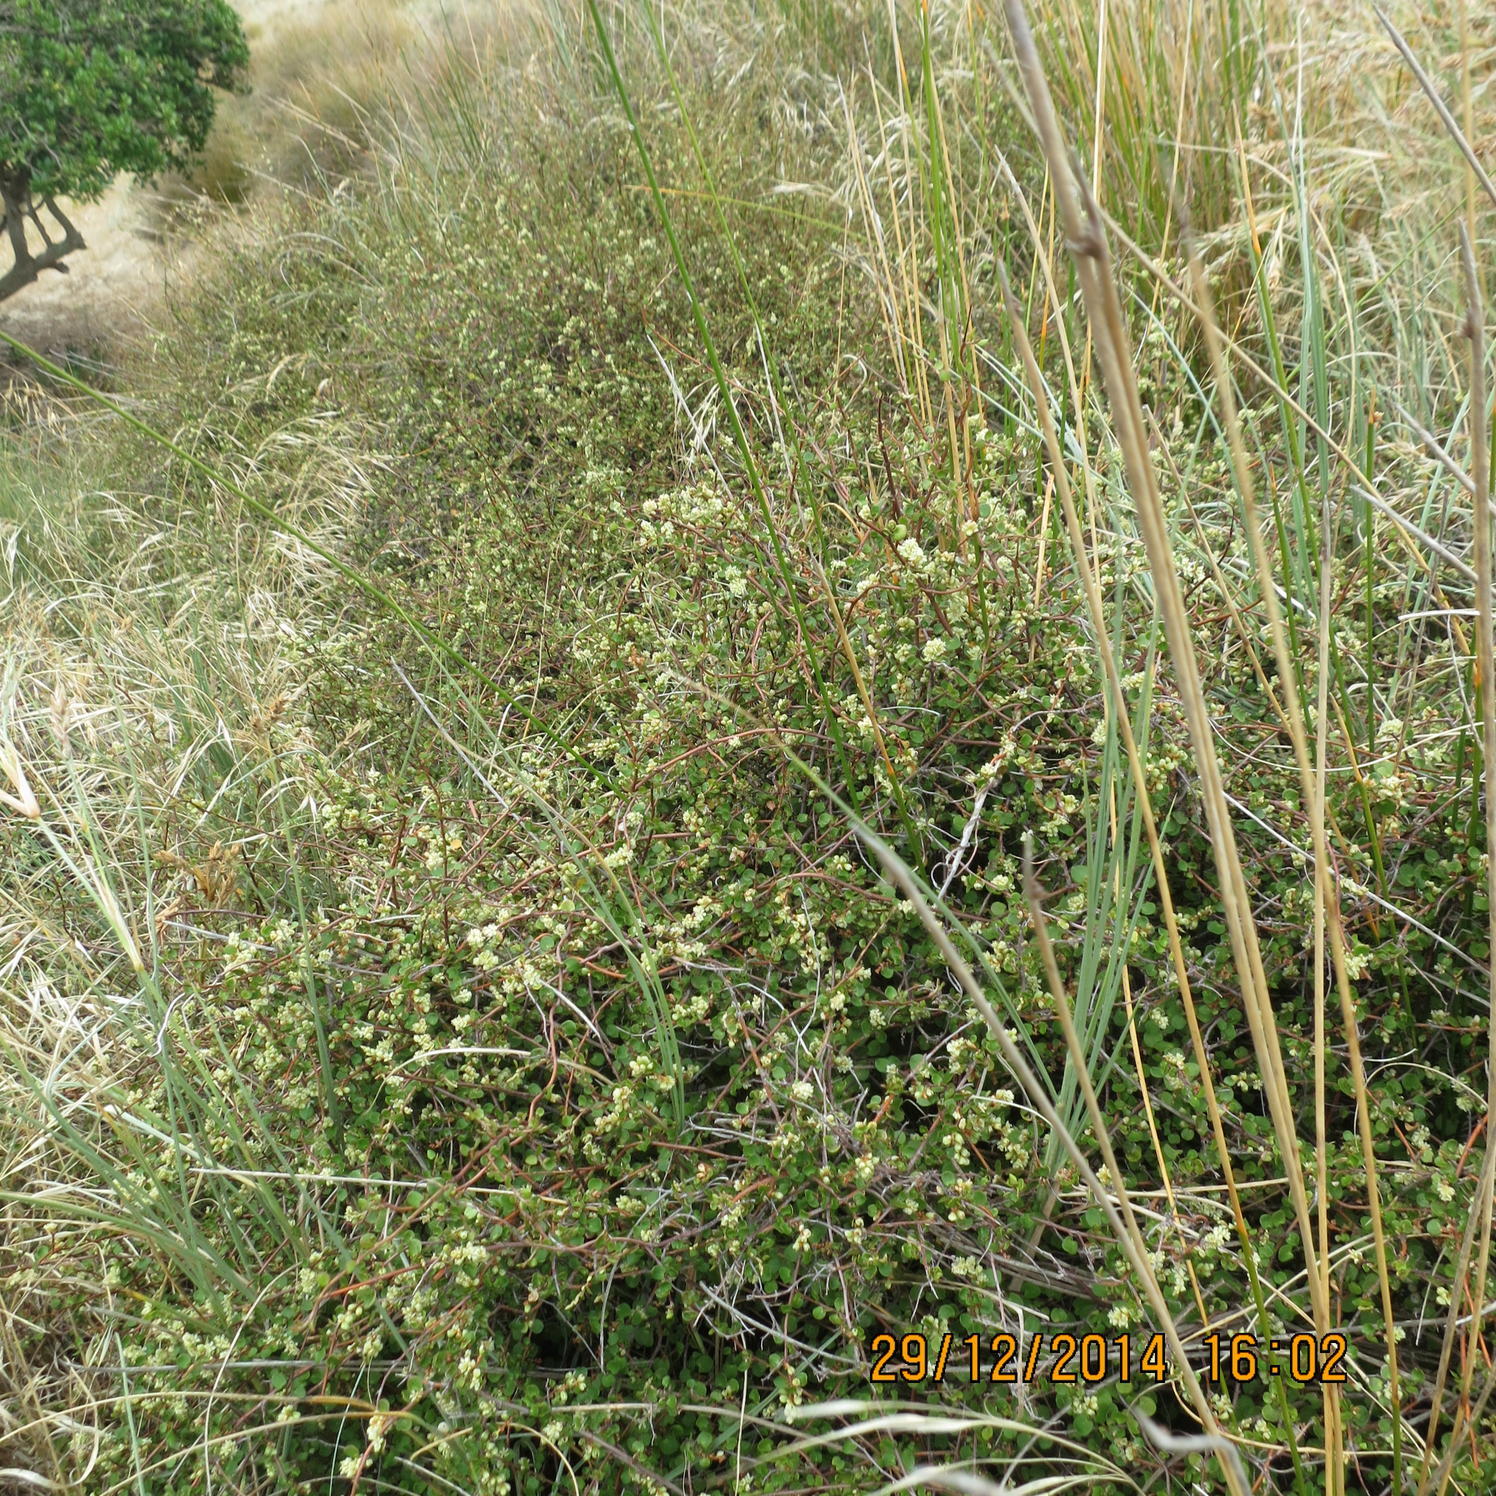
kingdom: Plantae
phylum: Tracheophyta
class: Magnoliopsida
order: Caryophyllales
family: Polygonaceae
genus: Muehlenbeckia
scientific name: Muehlenbeckia complexa
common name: Wireplant
